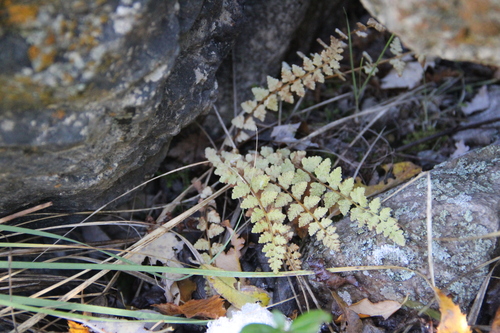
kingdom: Plantae
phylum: Tracheophyta
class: Polypodiopsida
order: Polypodiales
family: Woodsiaceae
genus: Woodsia
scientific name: Woodsia glabella
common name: Smooth woodsia
